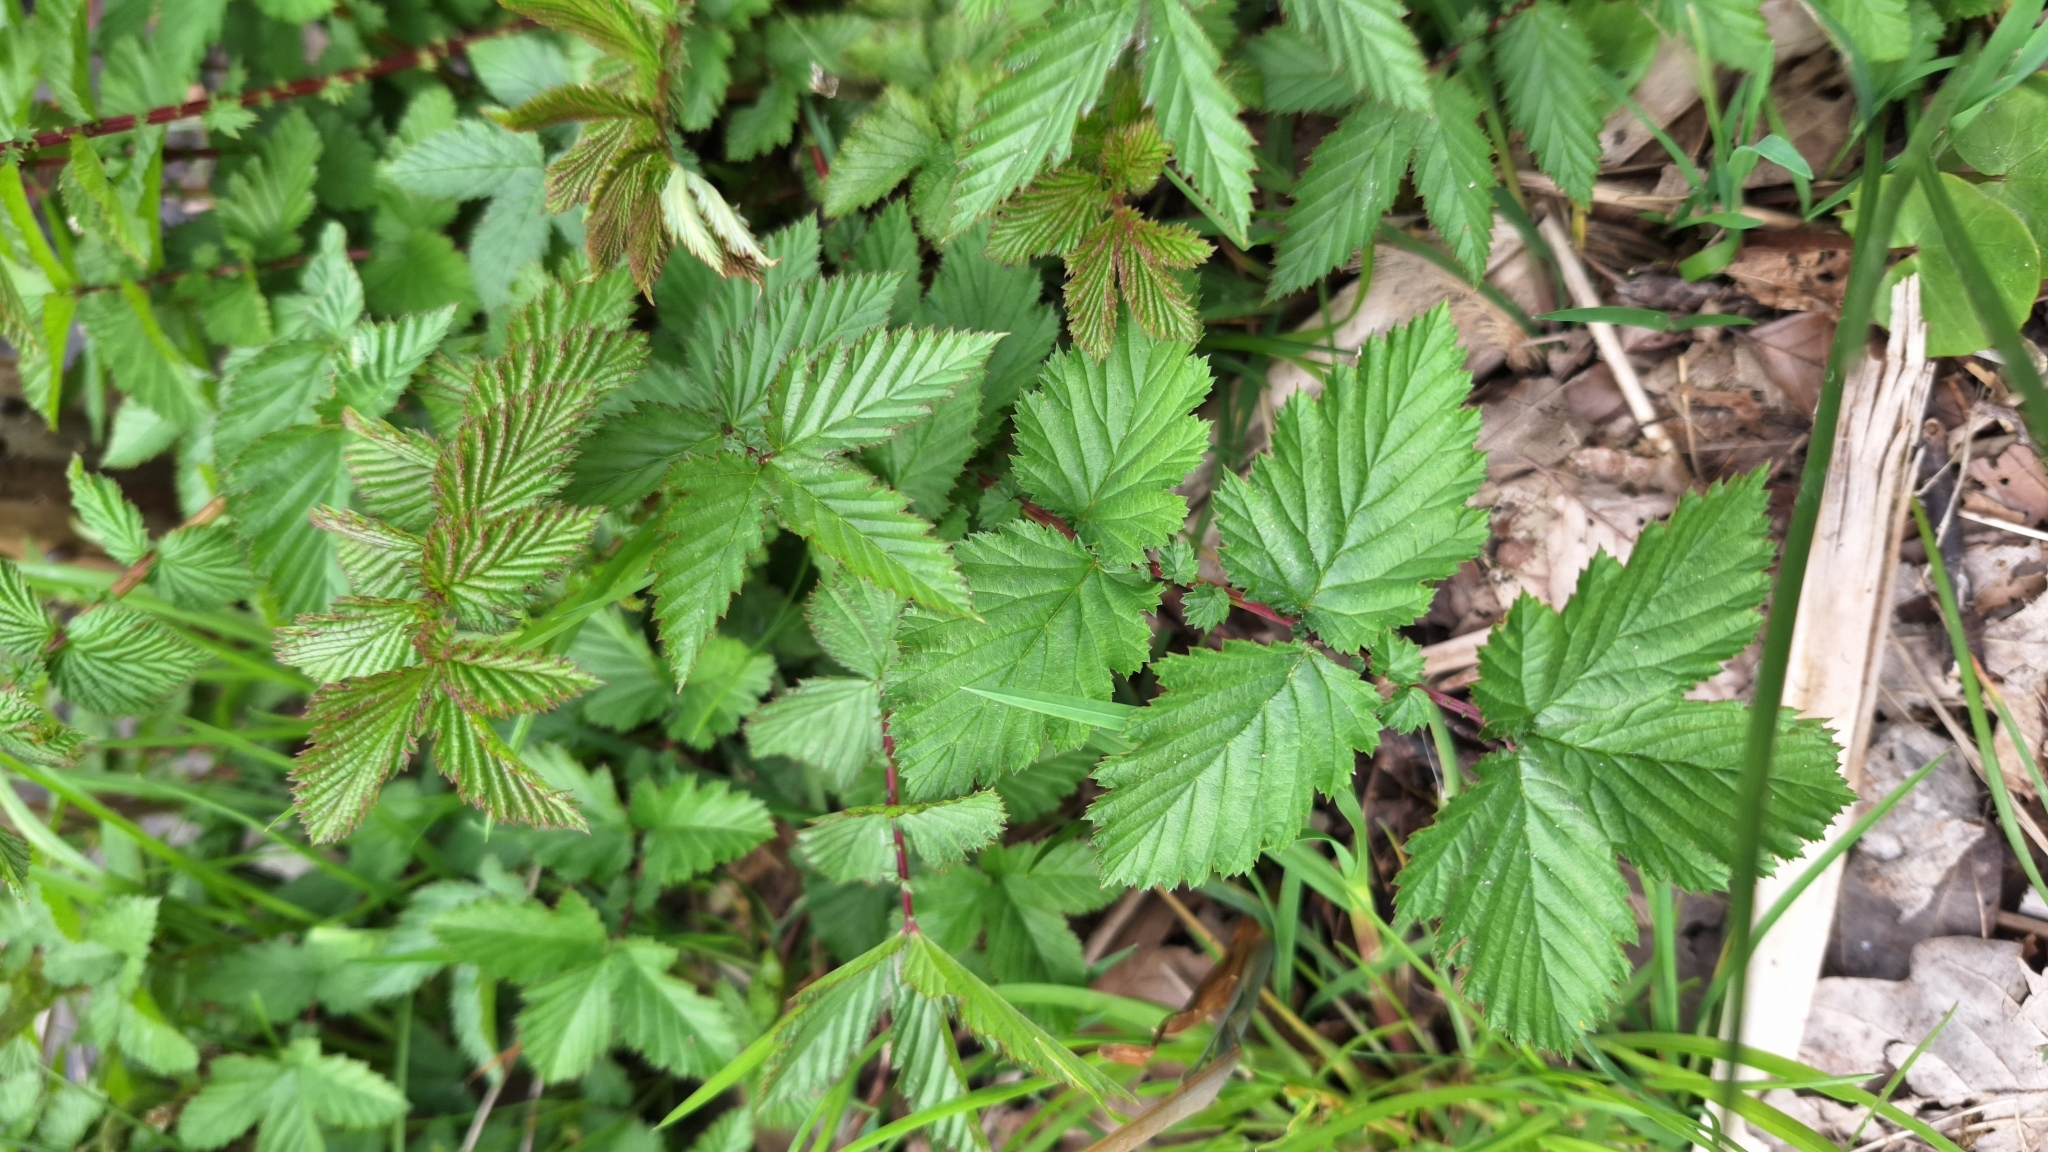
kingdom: Plantae
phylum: Tracheophyta
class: Magnoliopsida
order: Rosales
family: Rosaceae
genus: Filipendula
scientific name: Filipendula ulmaria
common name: Meadowsweet
